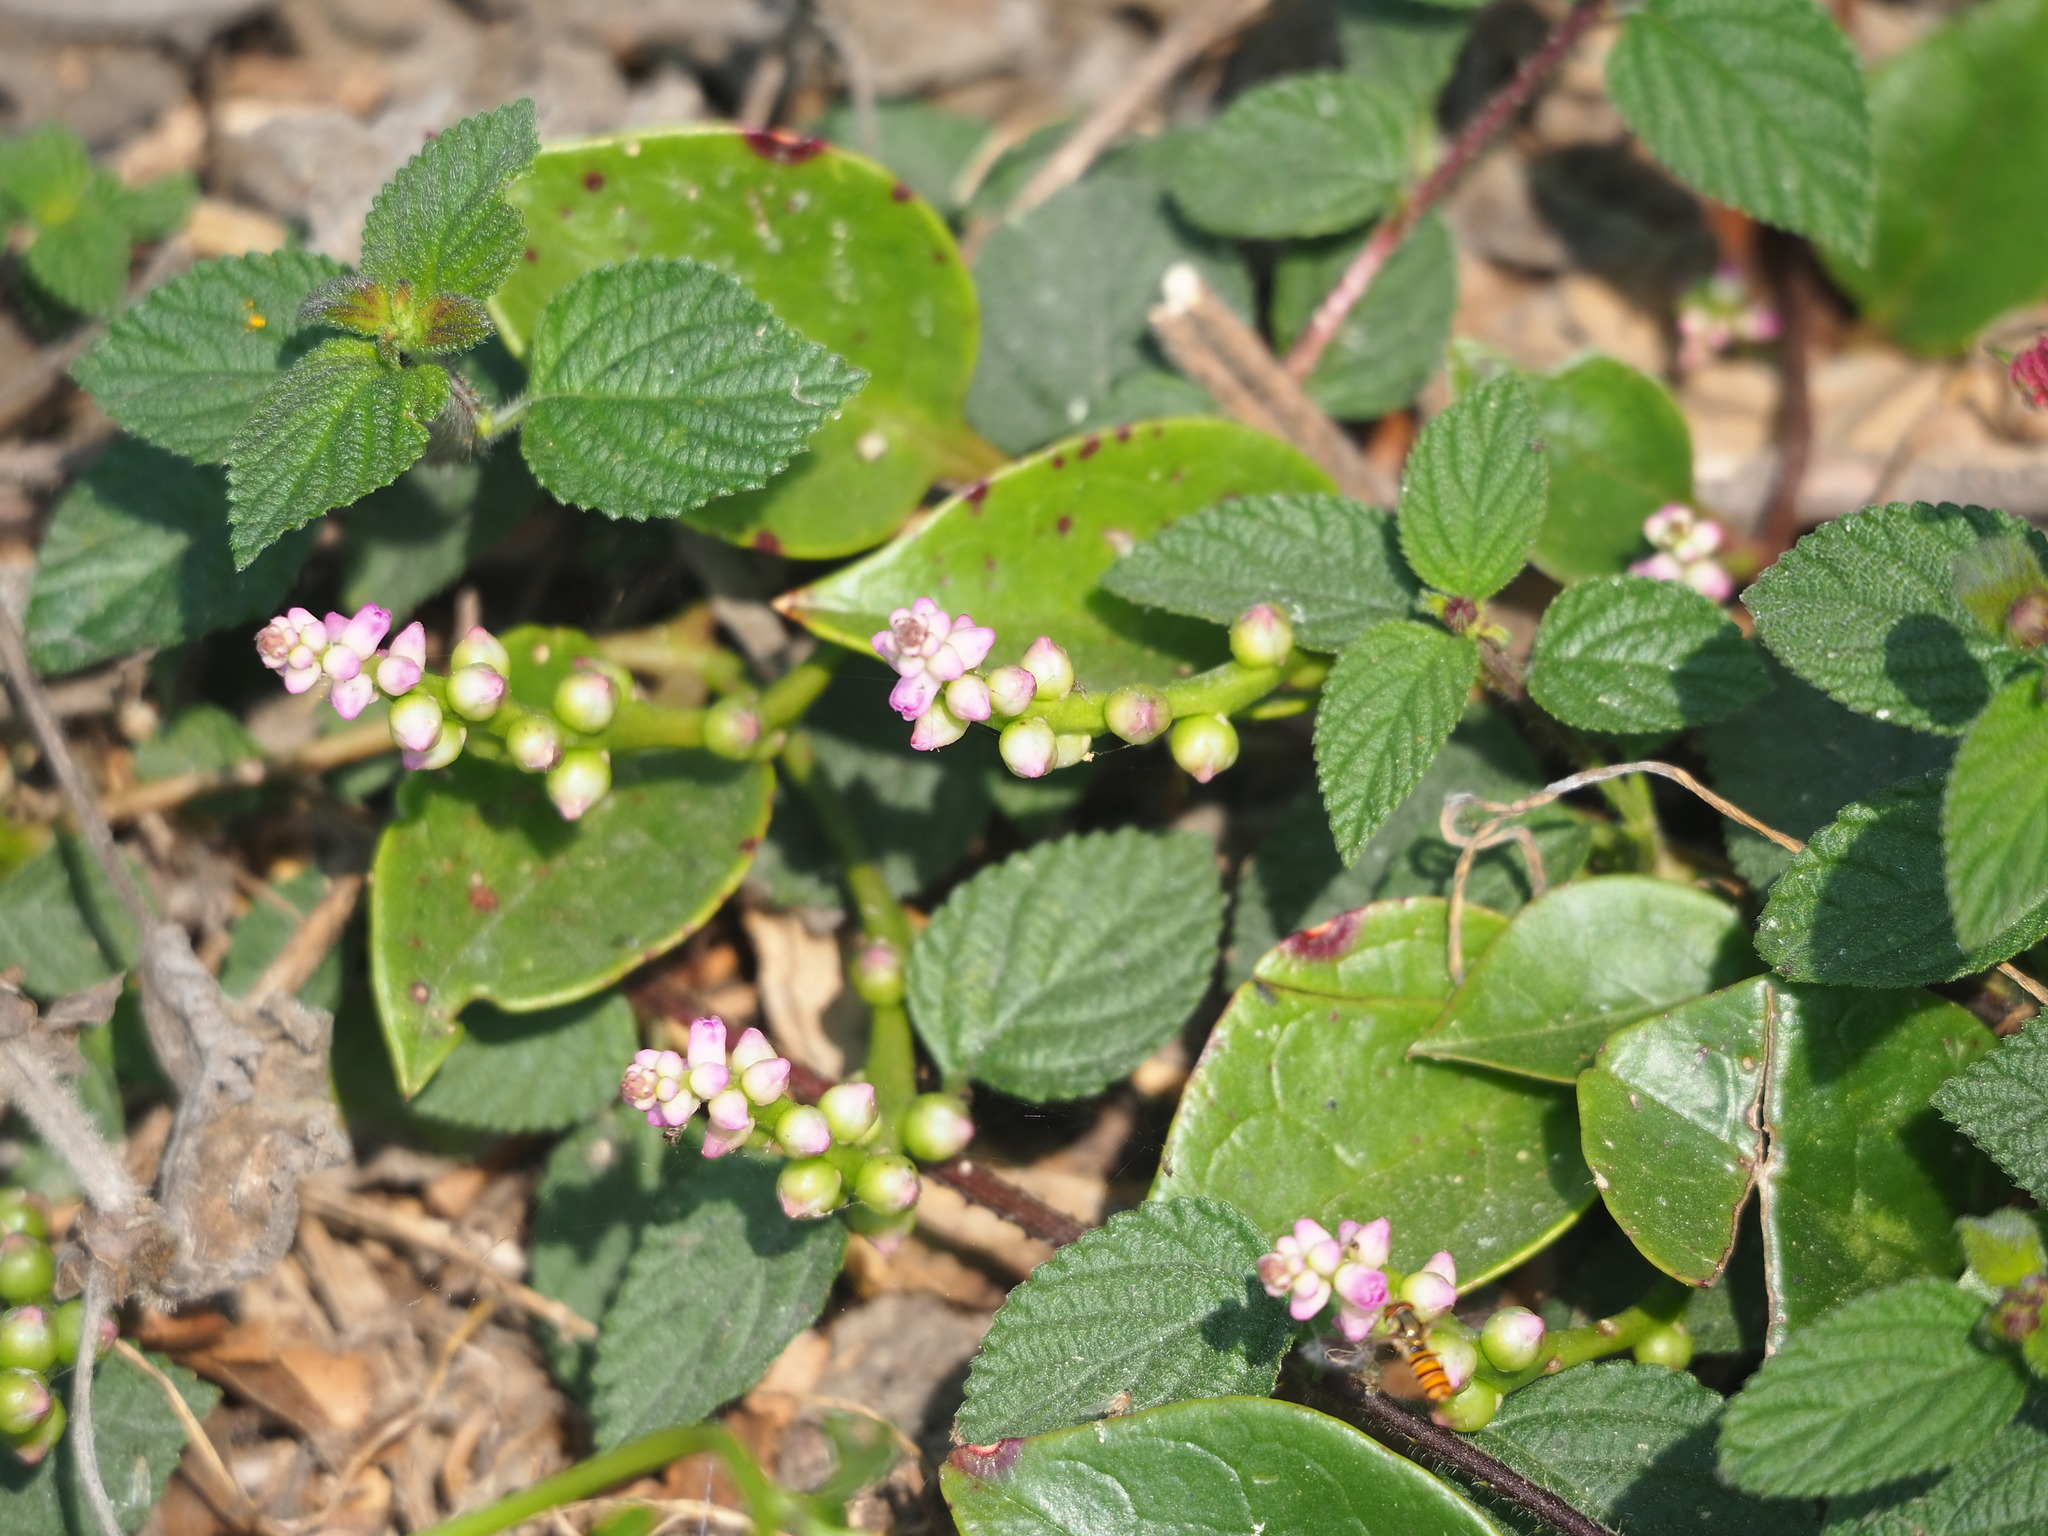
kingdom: Plantae
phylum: Tracheophyta
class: Magnoliopsida
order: Caryophyllales
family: Basellaceae
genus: Basella
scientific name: Basella alba
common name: Indian spinach
